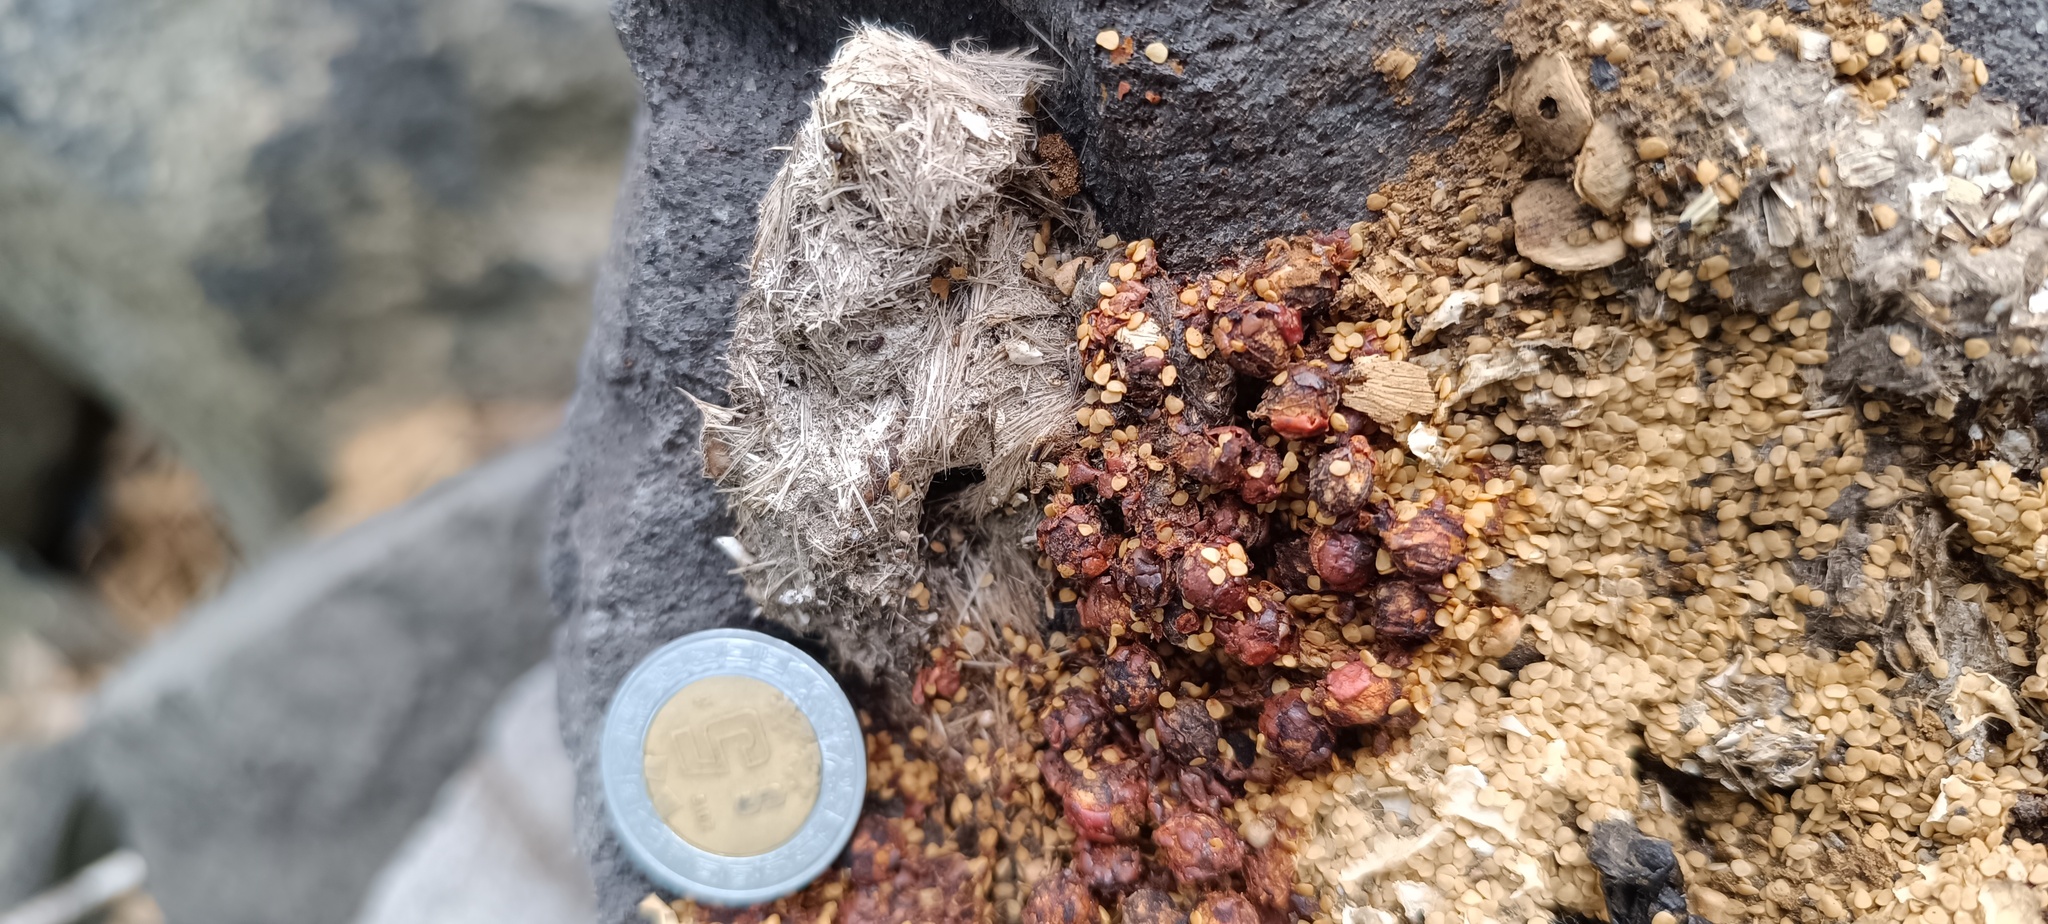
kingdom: Animalia
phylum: Chordata
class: Mammalia
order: Carnivora
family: Procyonidae
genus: Bassariscus
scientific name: Bassariscus astutus
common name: Ringtail
